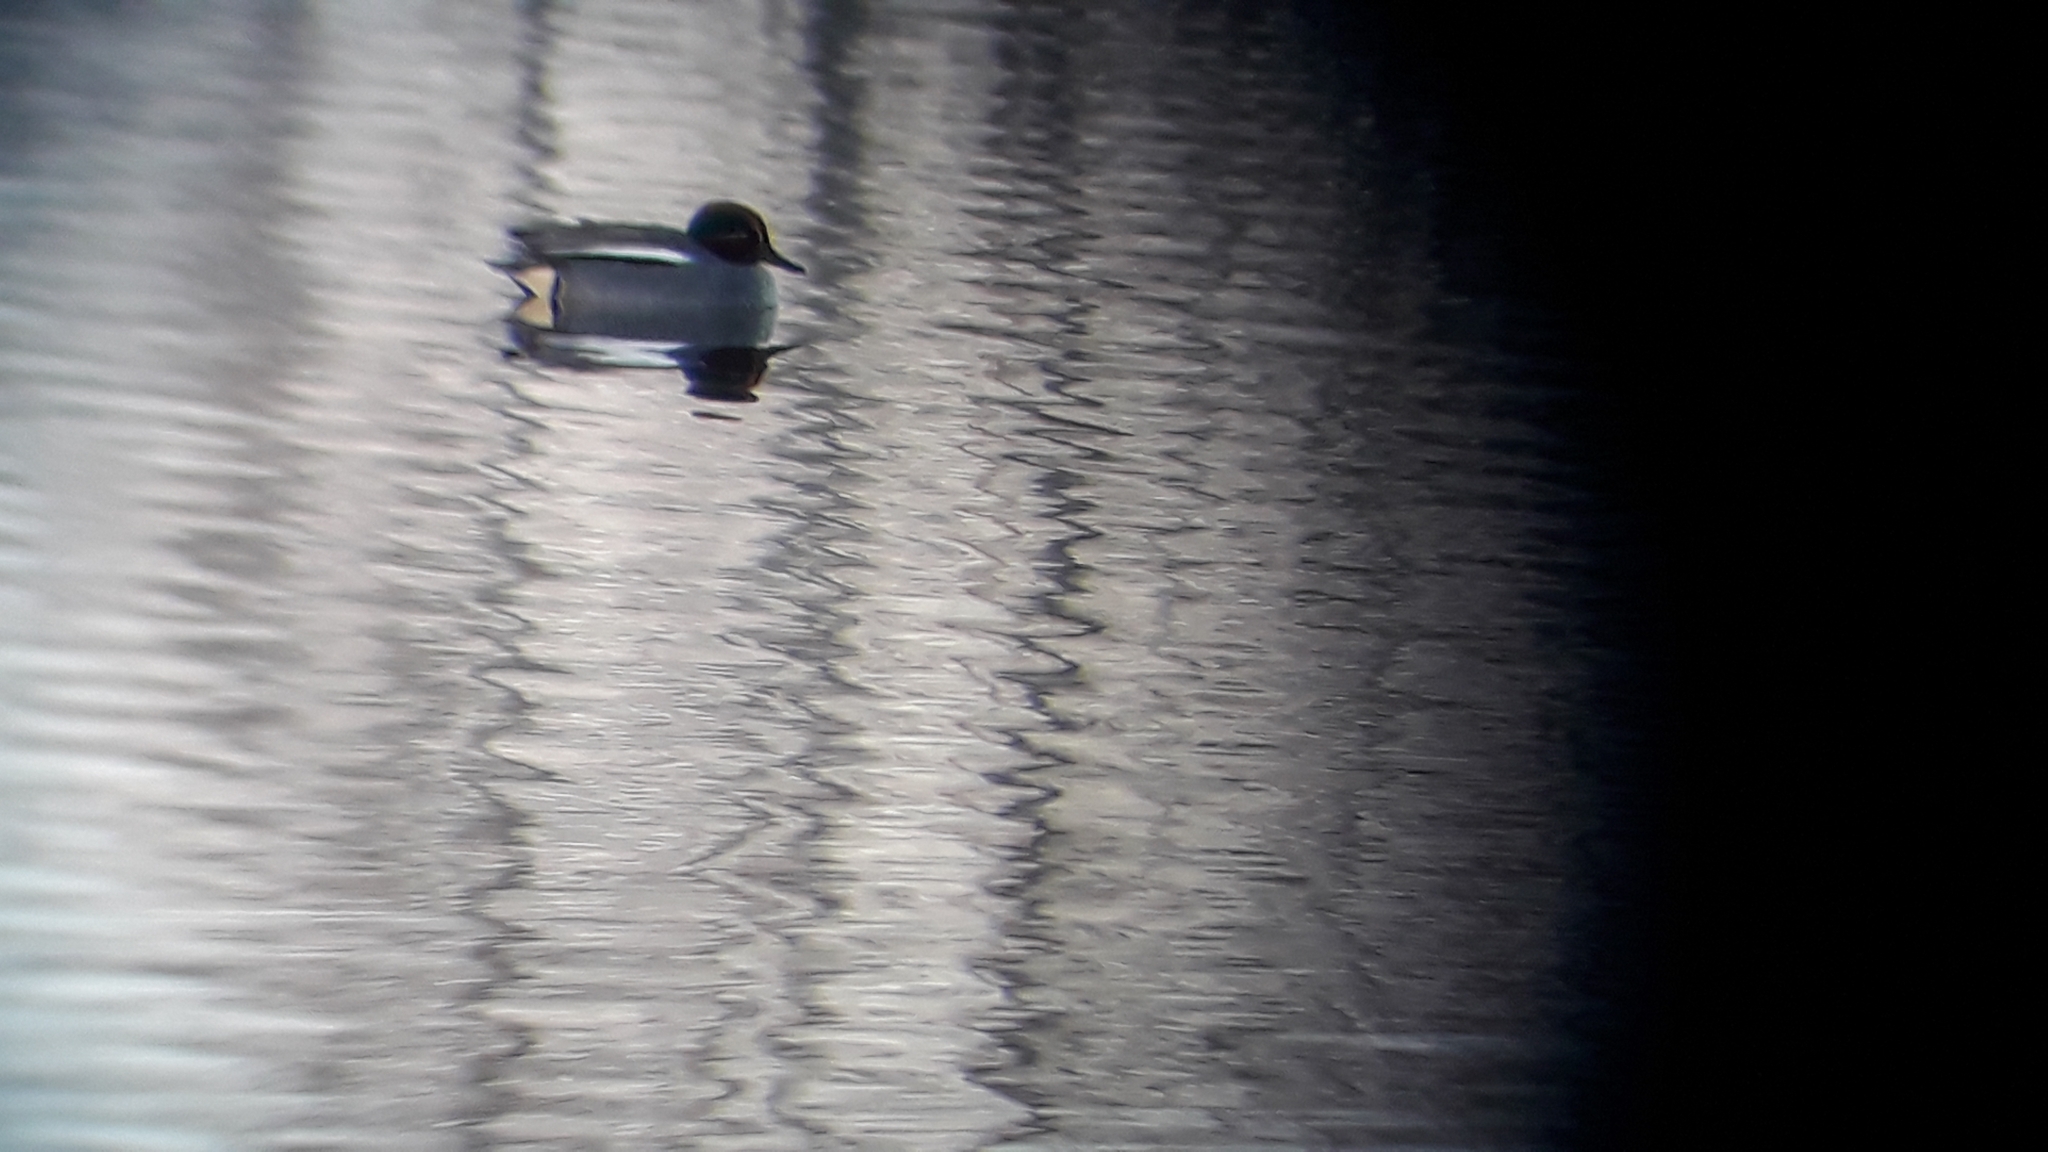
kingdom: Animalia
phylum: Chordata
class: Aves
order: Anseriformes
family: Anatidae
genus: Anas
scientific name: Anas crecca
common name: Eurasian teal
